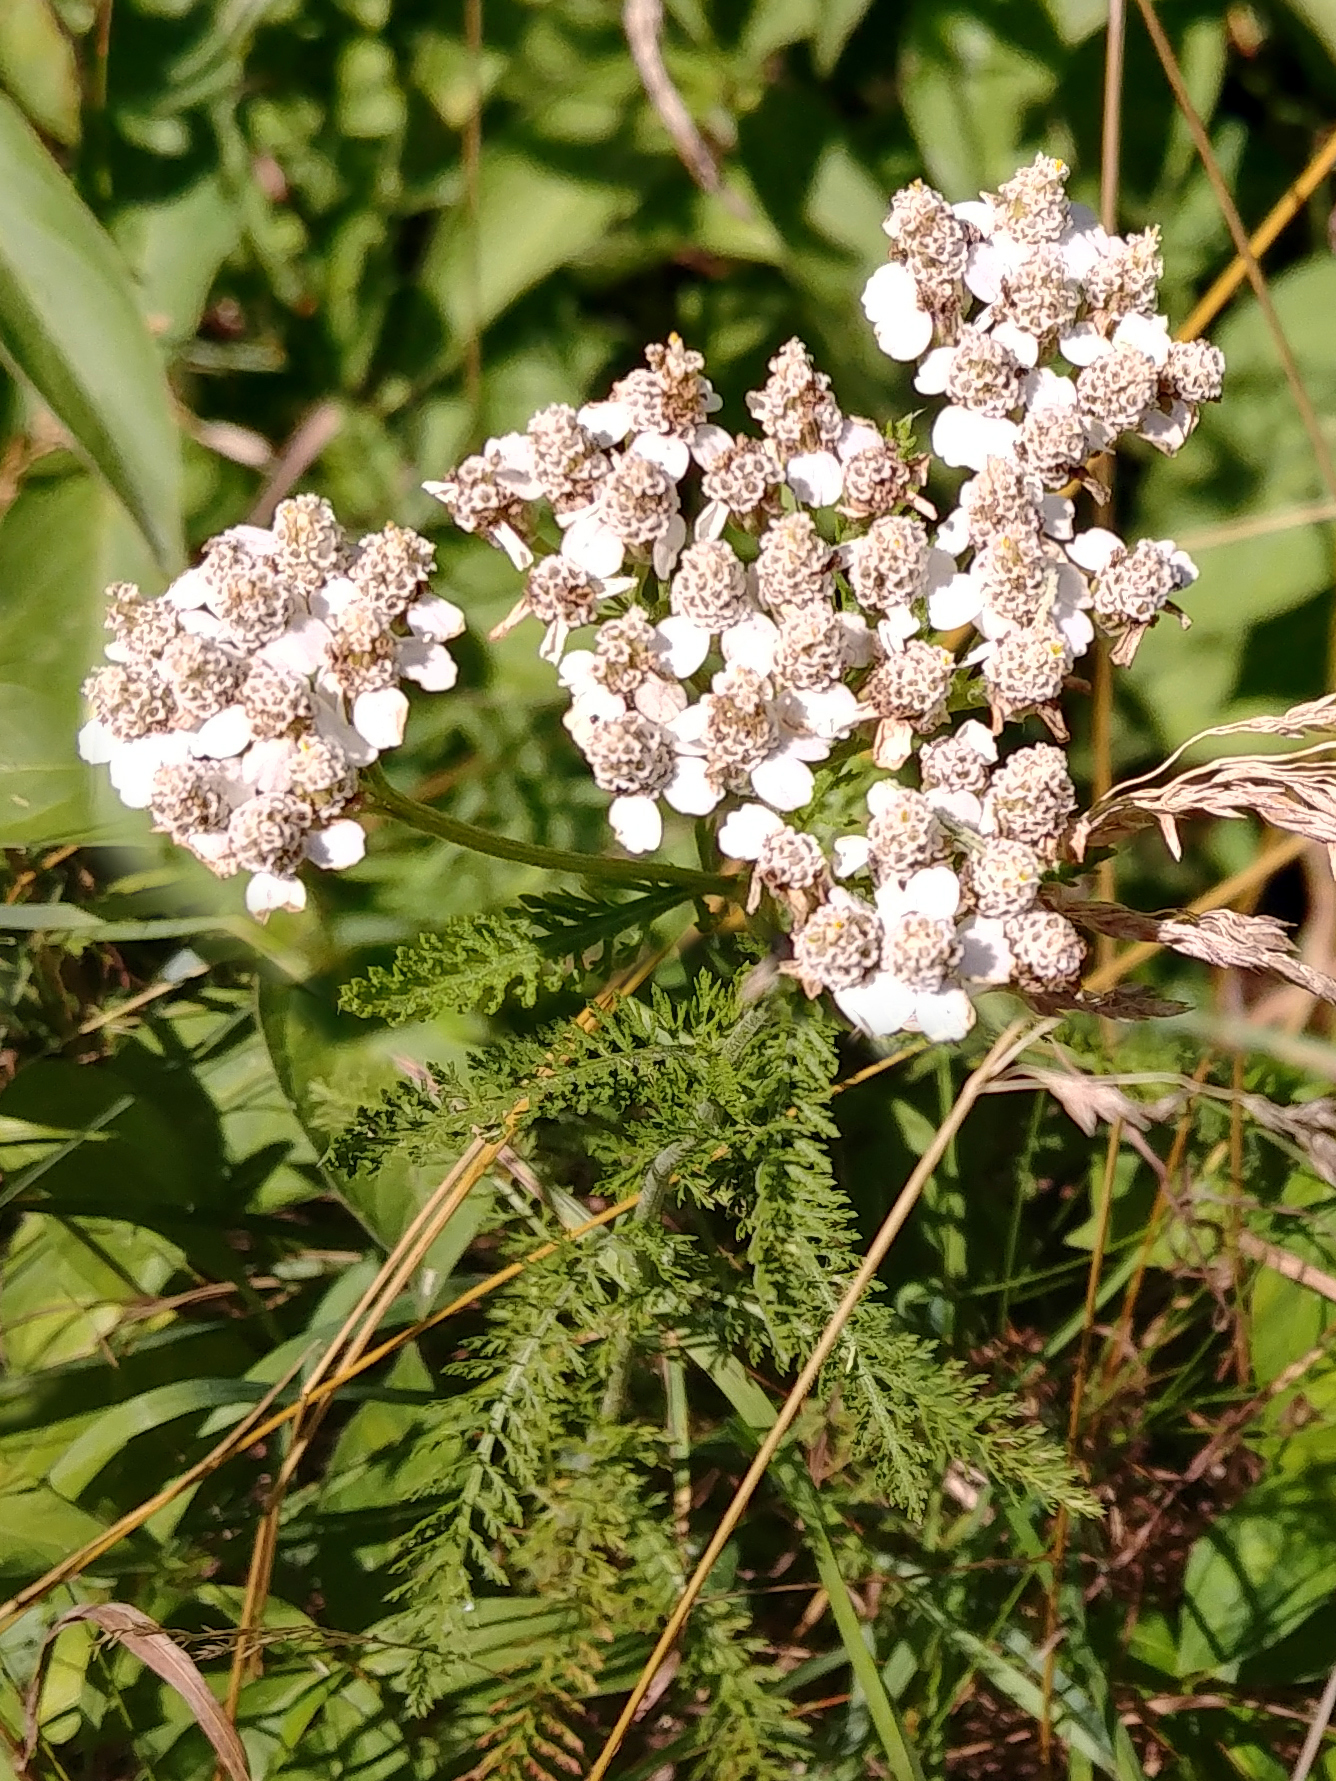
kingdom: Plantae
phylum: Tracheophyta
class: Magnoliopsida
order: Asterales
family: Asteraceae
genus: Achillea
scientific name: Achillea millefolium
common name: Yarrow
